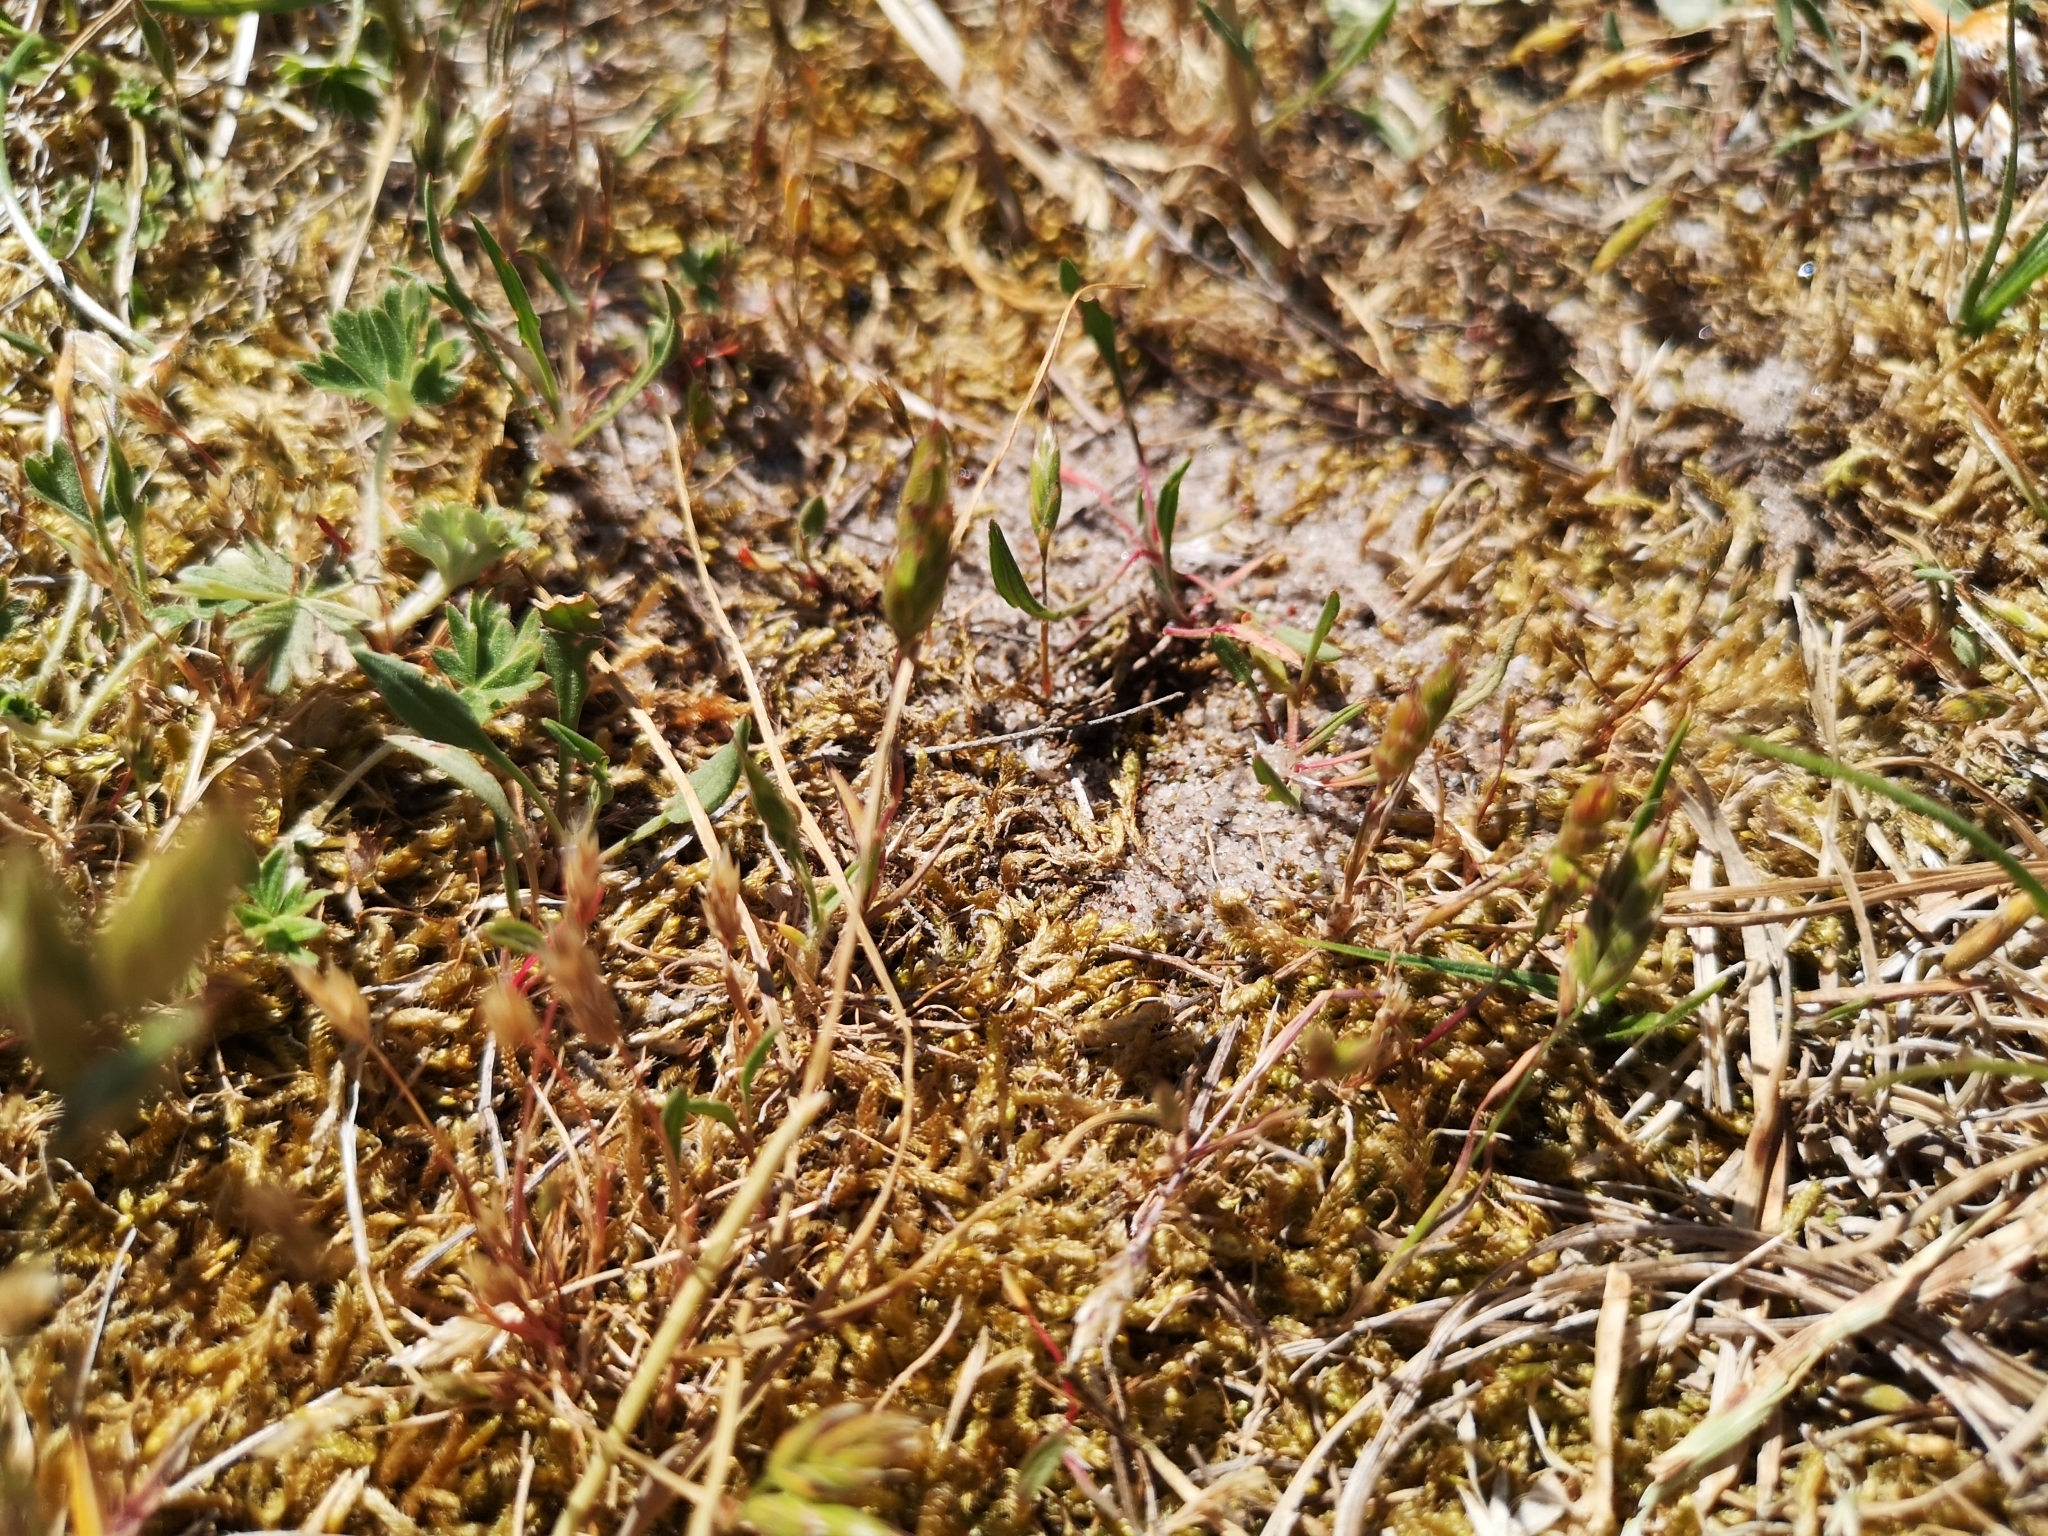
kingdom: Plantae
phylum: Tracheophyta
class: Liliopsida
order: Poales
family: Poaceae
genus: Aira
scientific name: Aira praecox
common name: Early hair-grass
